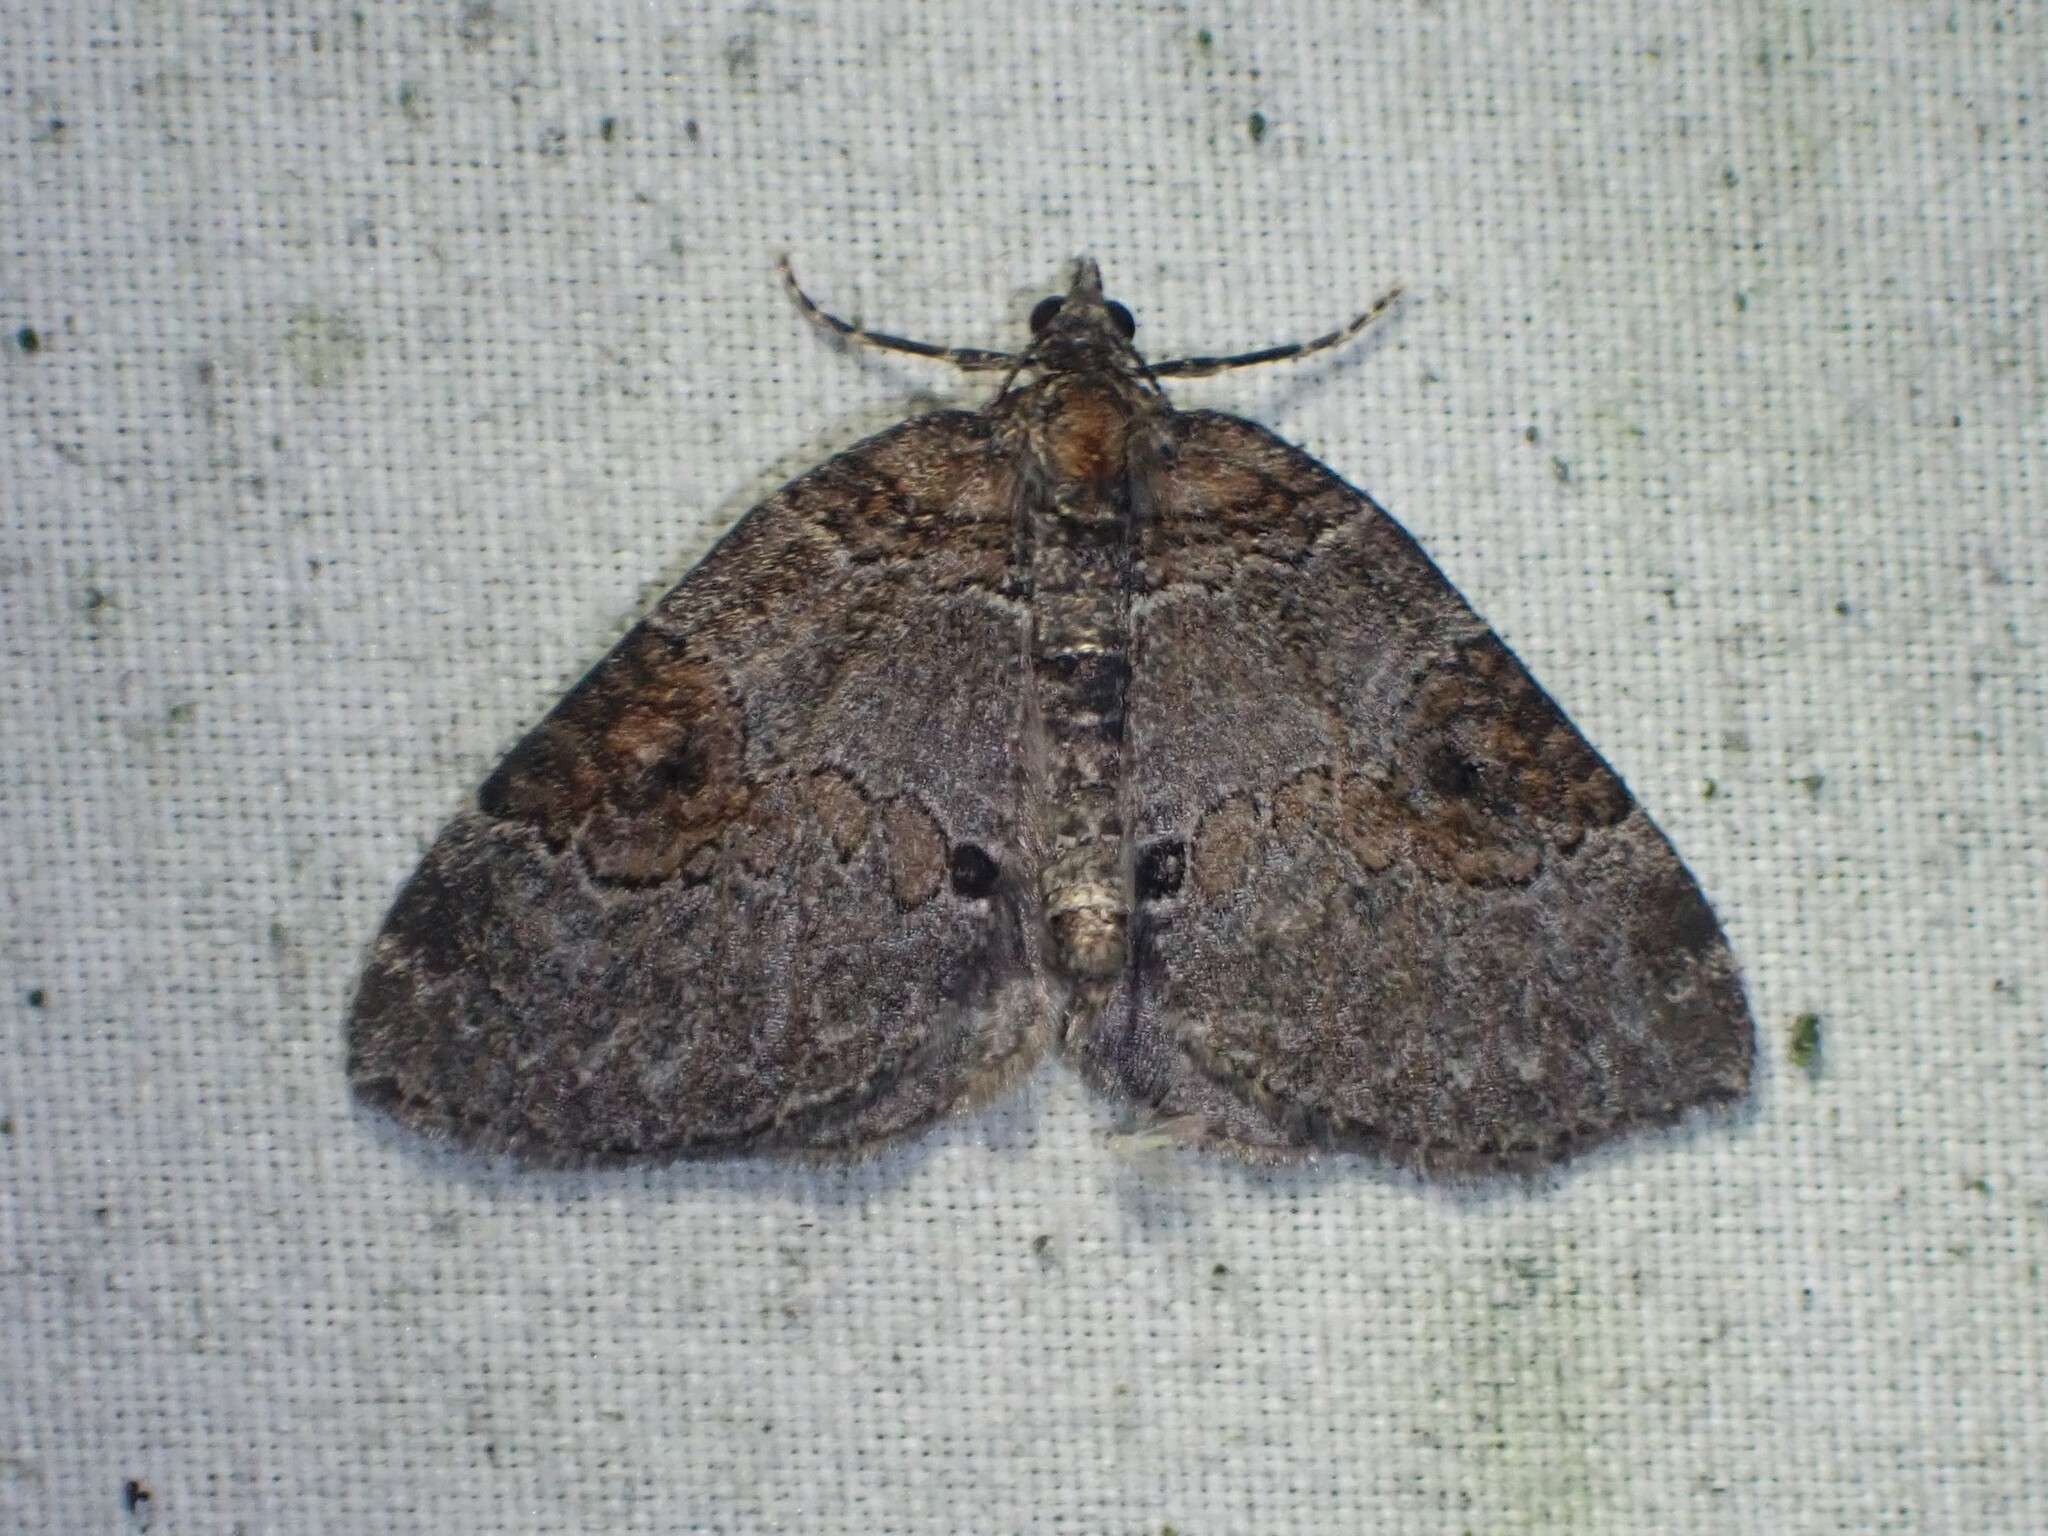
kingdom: Animalia
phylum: Arthropoda
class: Insecta
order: Lepidoptera
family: Geometridae
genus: Plemyria
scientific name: Plemyria georgii
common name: George's carpet moth
